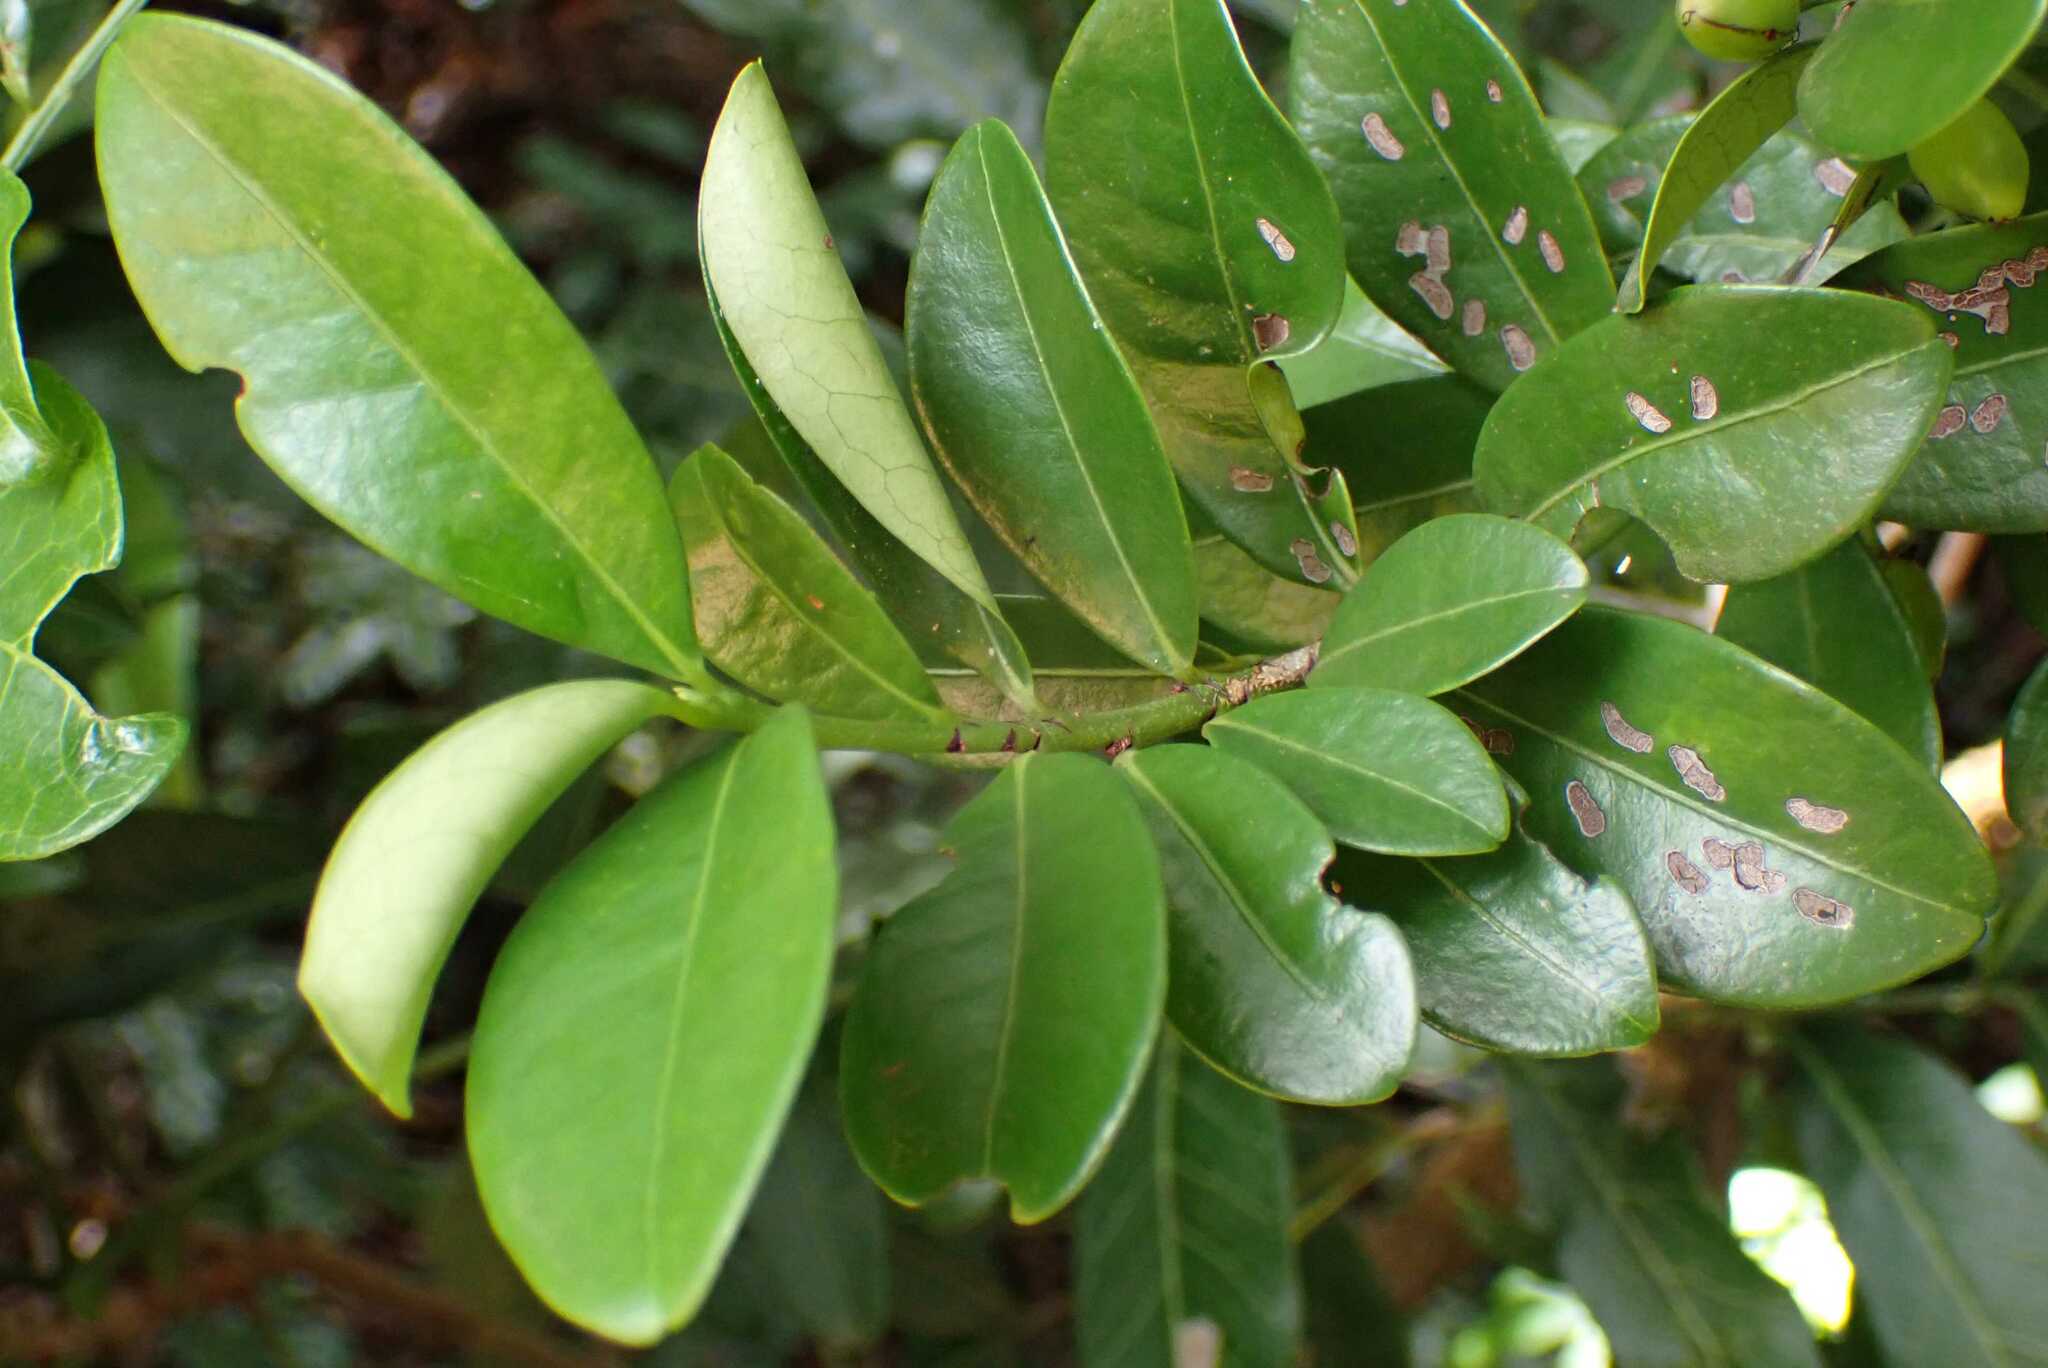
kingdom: Plantae
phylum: Tracheophyta
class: Magnoliopsida
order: Malpighiales
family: Erythroxylaceae
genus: Erythroxylum
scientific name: Erythroxylum emarginatum
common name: African coca-tree
